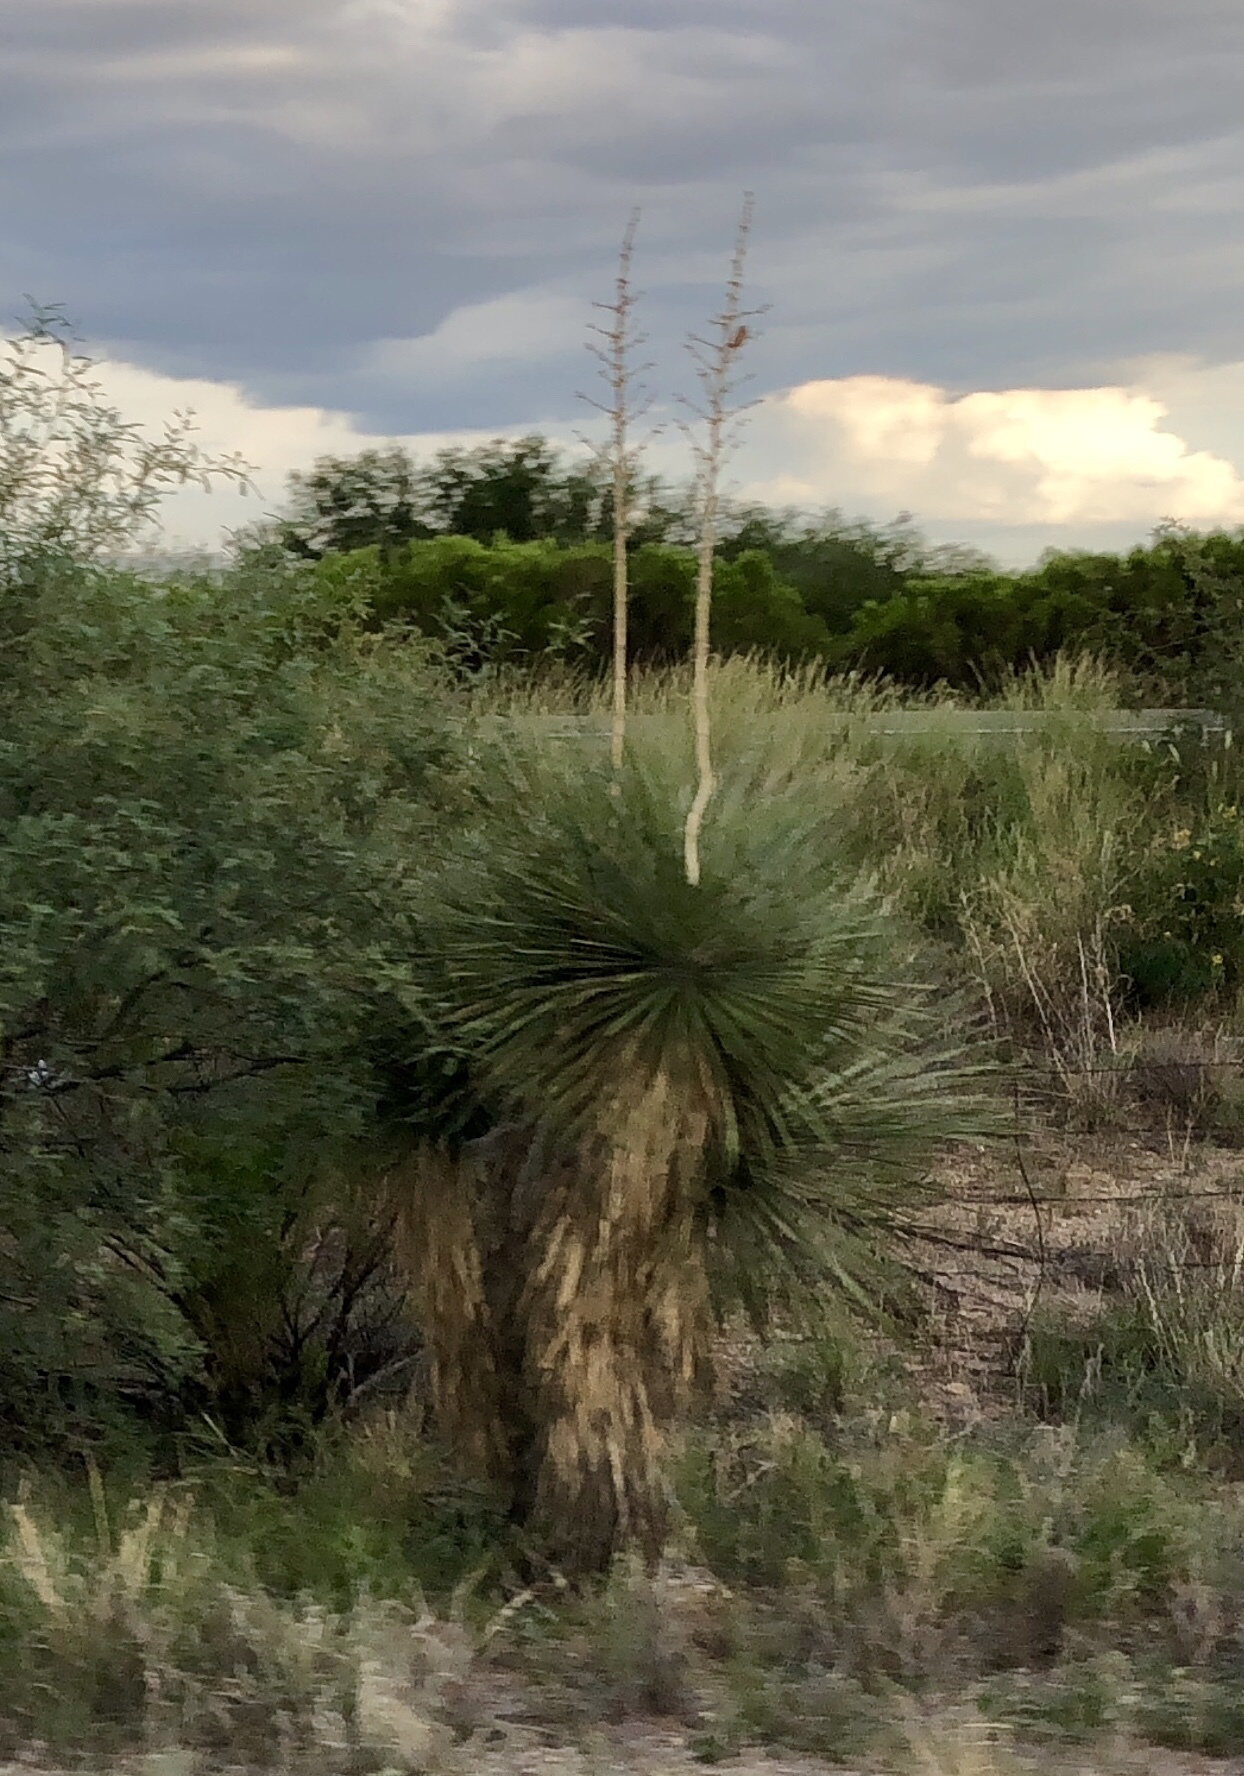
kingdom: Plantae
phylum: Tracheophyta
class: Liliopsida
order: Asparagales
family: Asparagaceae
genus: Yucca
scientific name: Yucca elata
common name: Palmella
